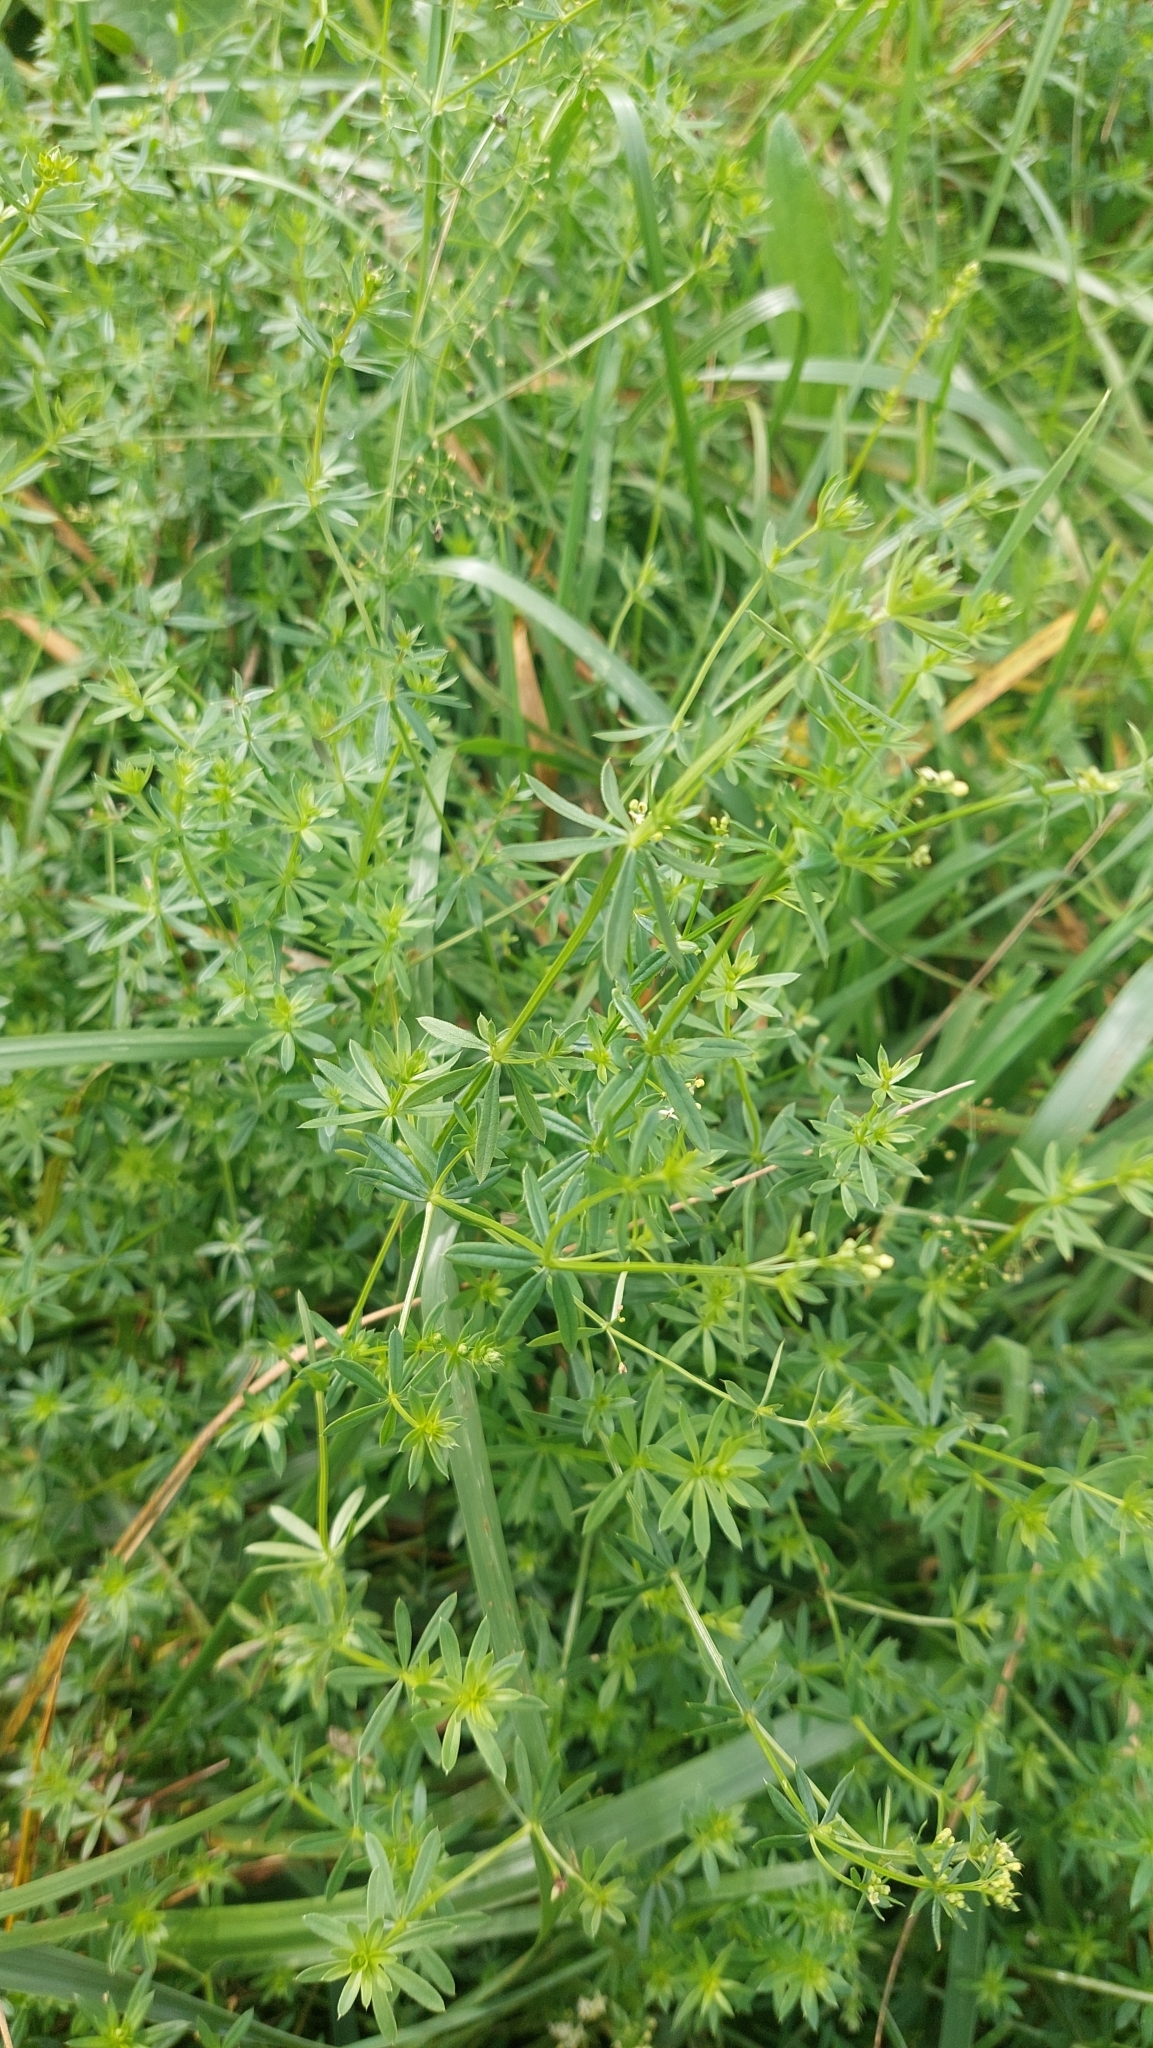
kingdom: Plantae
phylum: Tracheophyta
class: Magnoliopsida
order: Gentianales
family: Rubiaceae
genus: Galium
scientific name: Galium album
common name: White bedstraw
